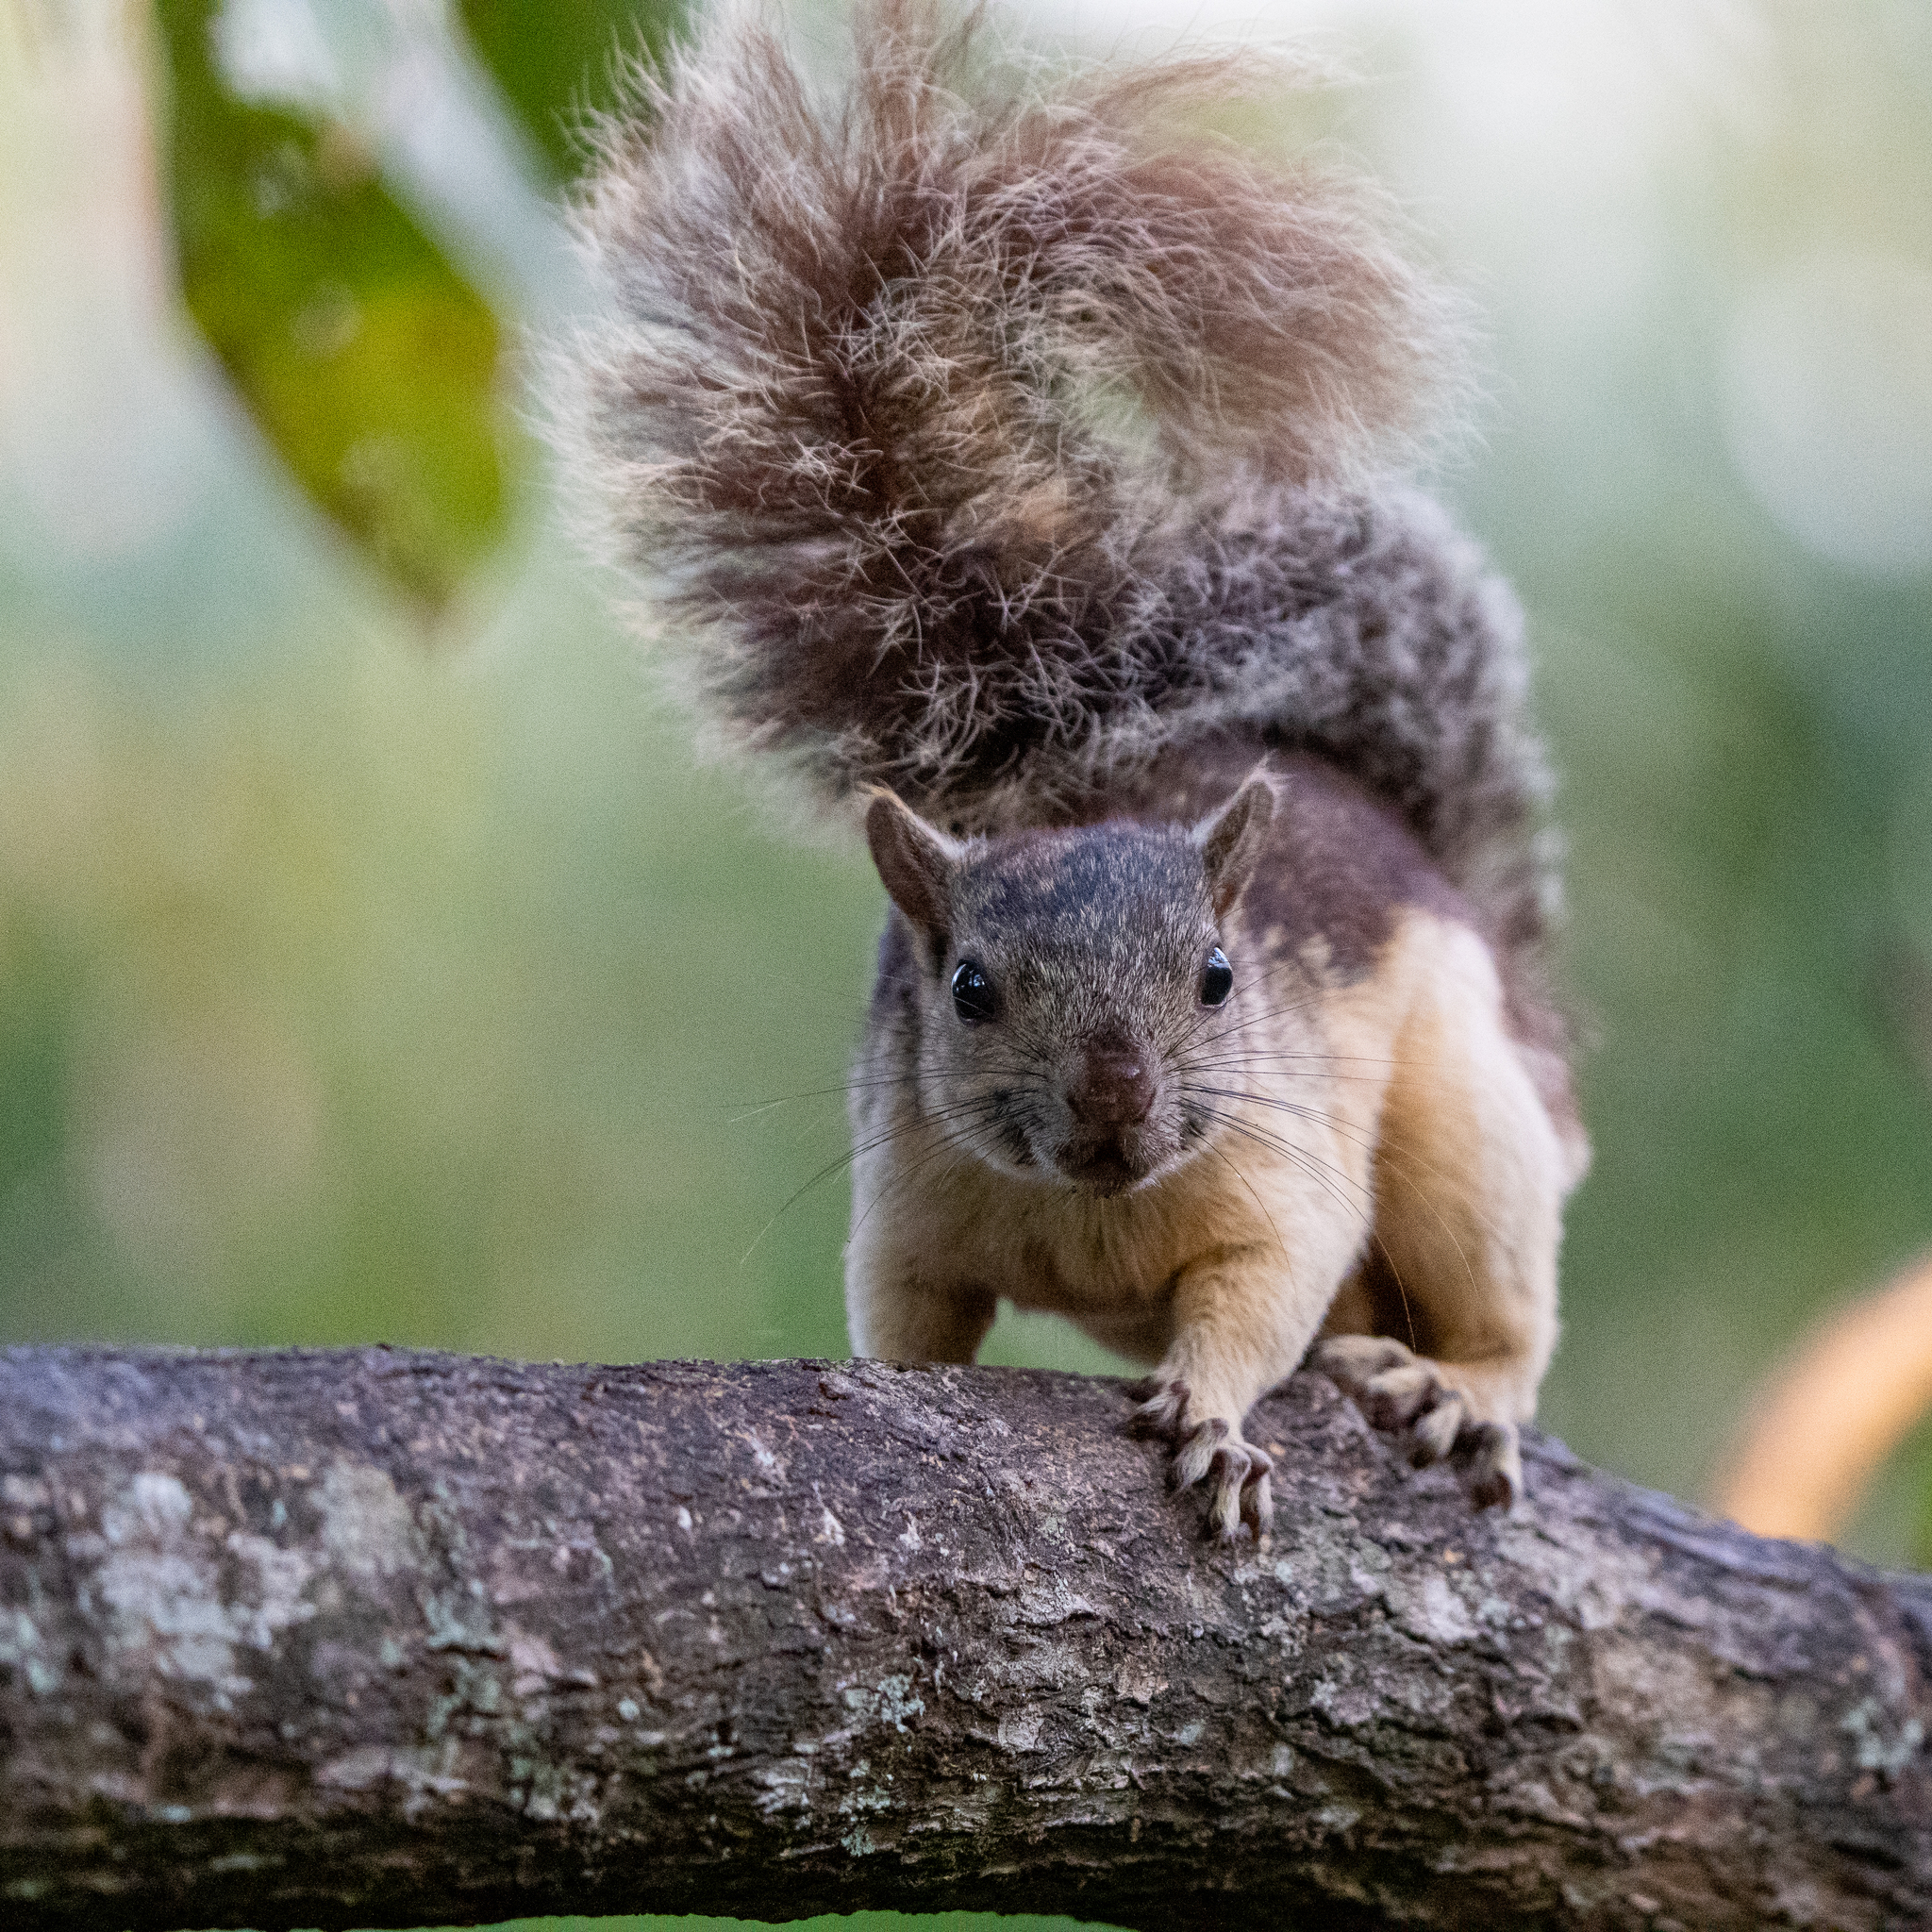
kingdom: Animalia
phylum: Chordata
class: Mammalia
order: Rodentia
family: Sciuridae
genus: Sciurus
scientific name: Sciurus variegatoides
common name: Variegated squirrel
